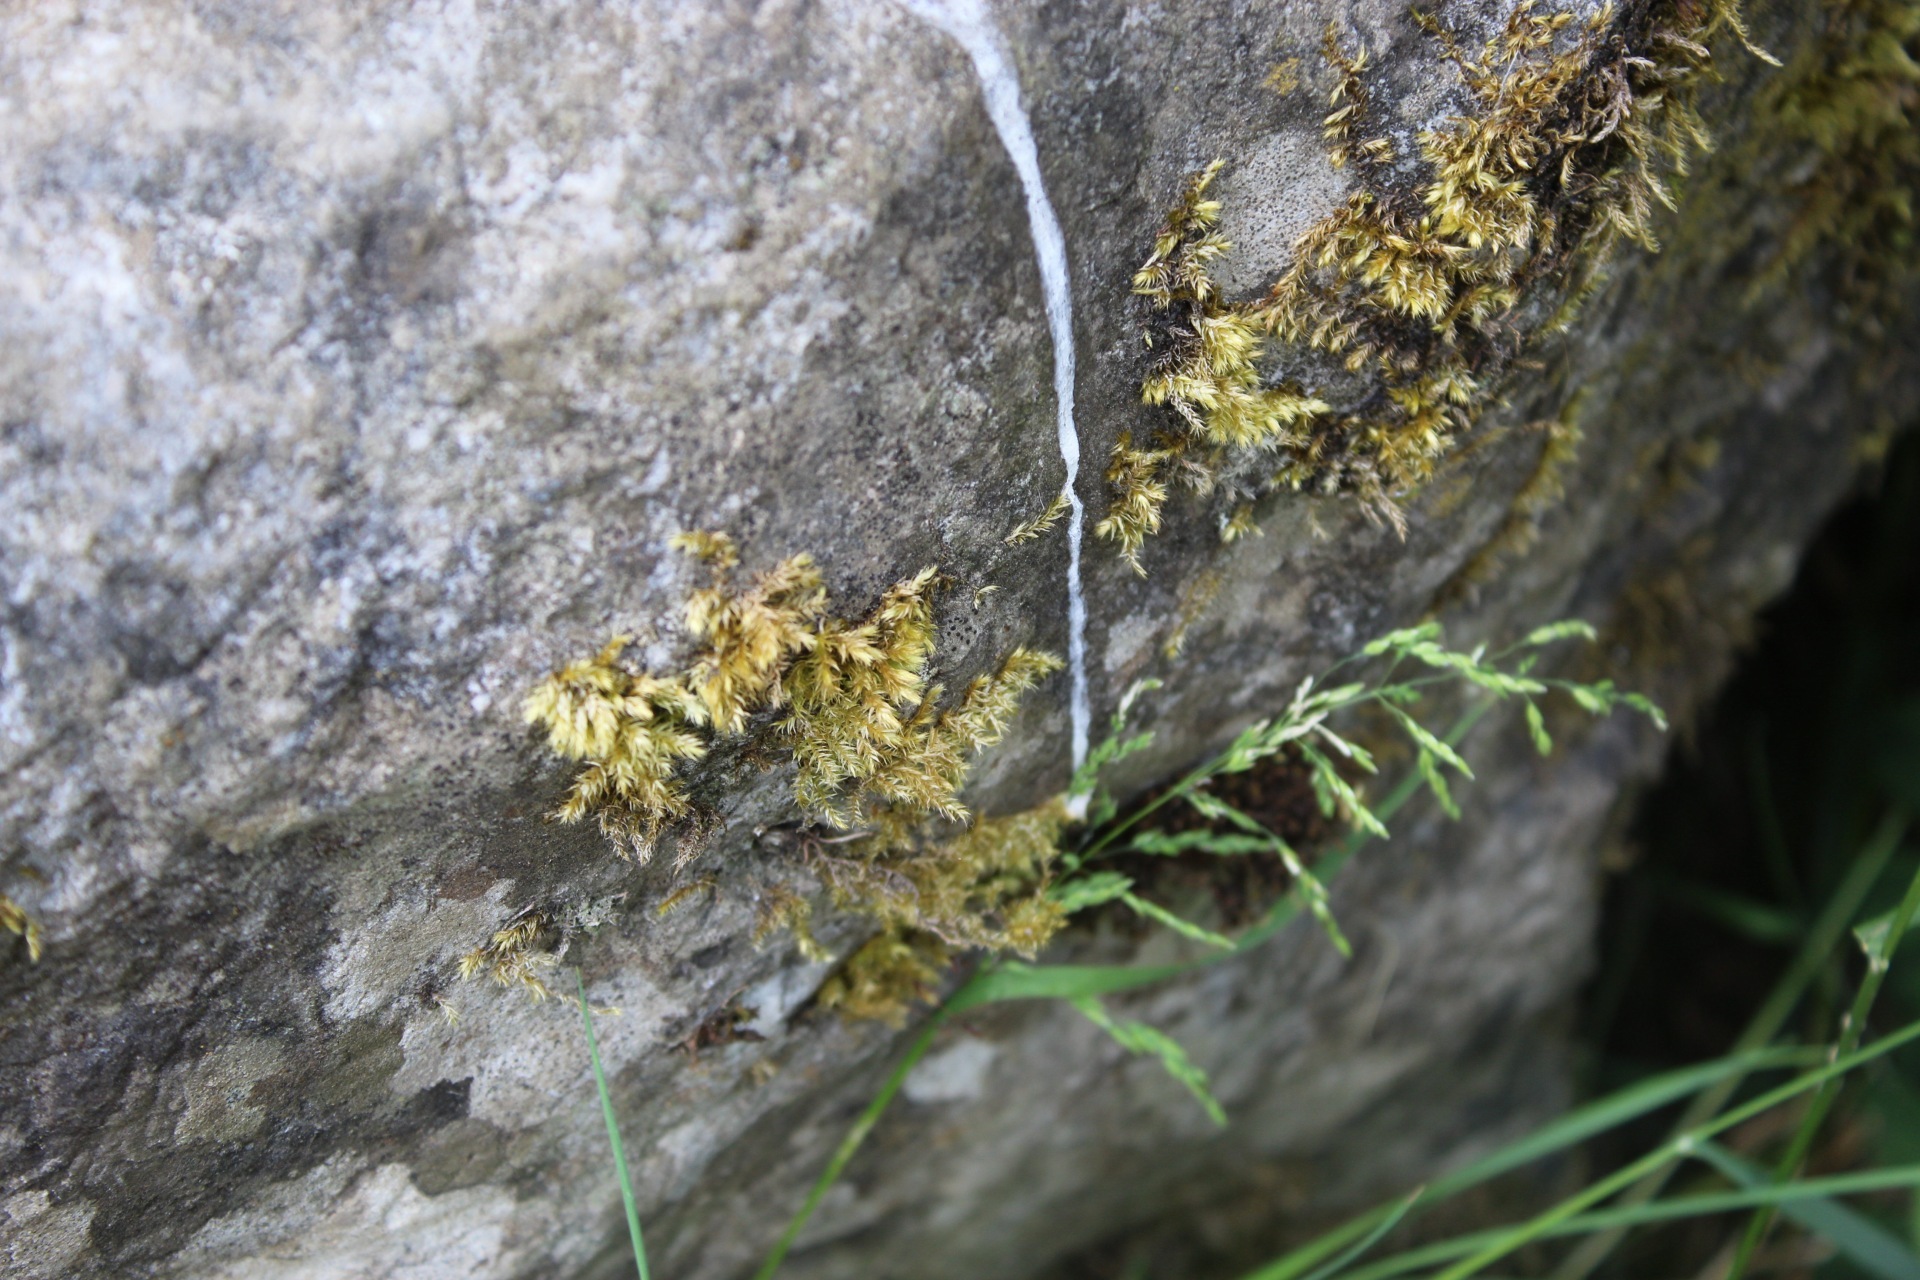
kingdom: Plantae
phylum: Bryophyta
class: Bryopsida
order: Hypnales
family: Brachytheciaceae
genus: Brachythecium
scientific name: Brachythecium rutabulum
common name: Rough-stalked feather-moss
